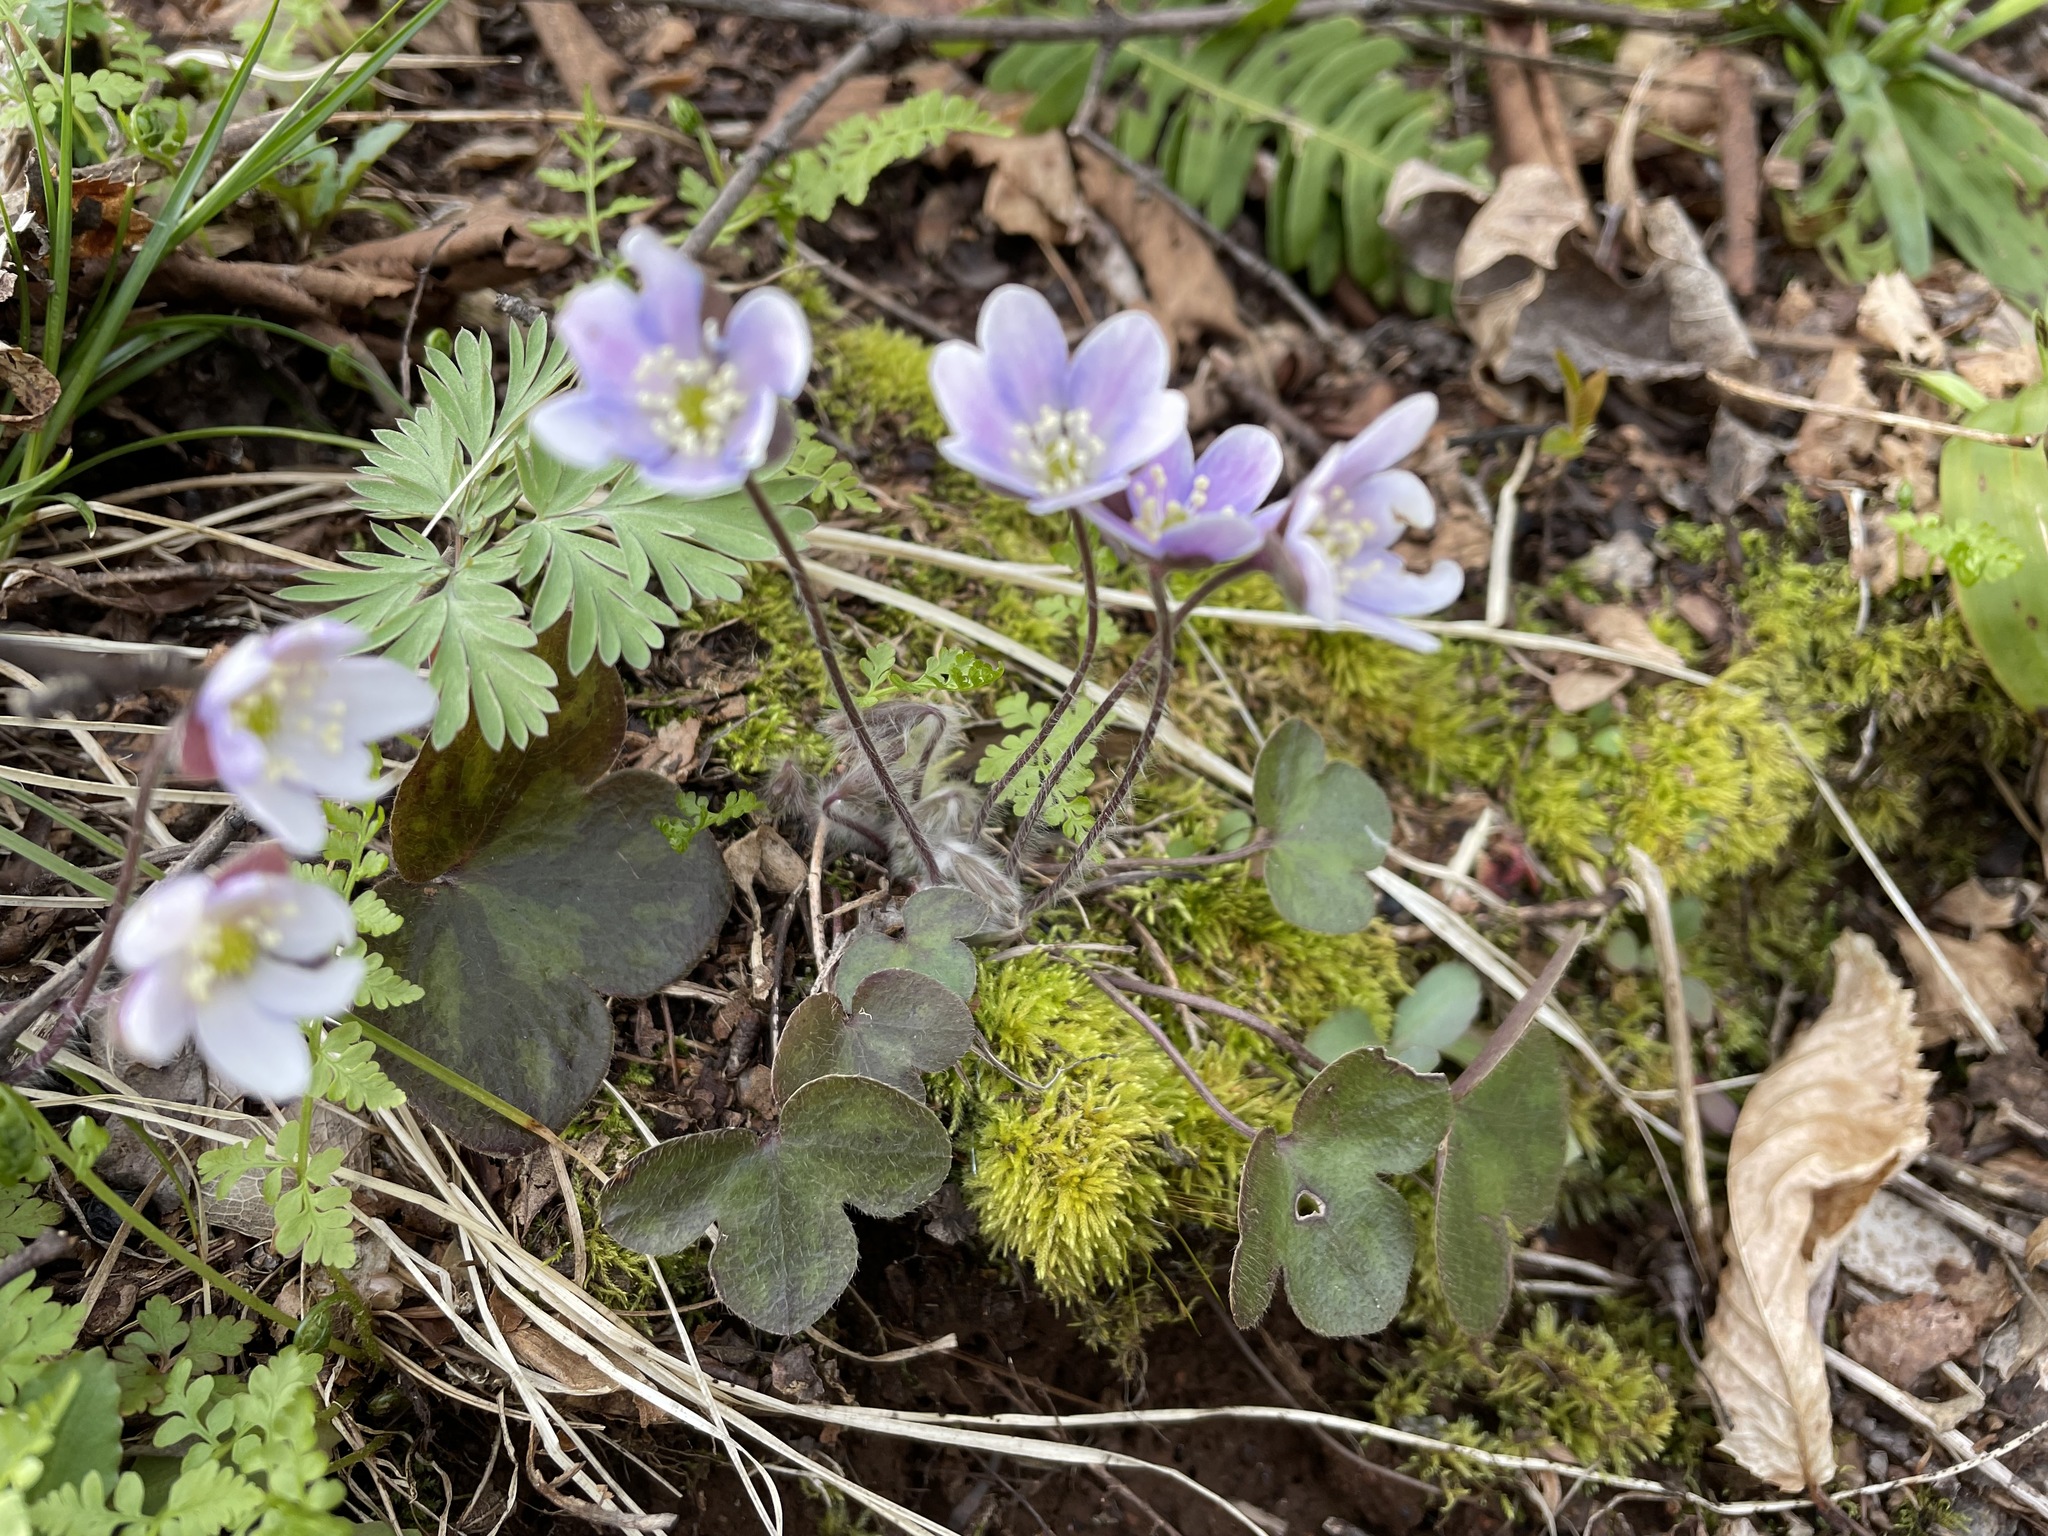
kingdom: Plantae
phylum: Tracheophyta
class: Magnoliopsida
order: Ranunculales
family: Ranunculaceae
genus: Hepatica
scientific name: Hepatica americana
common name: American hepatica
